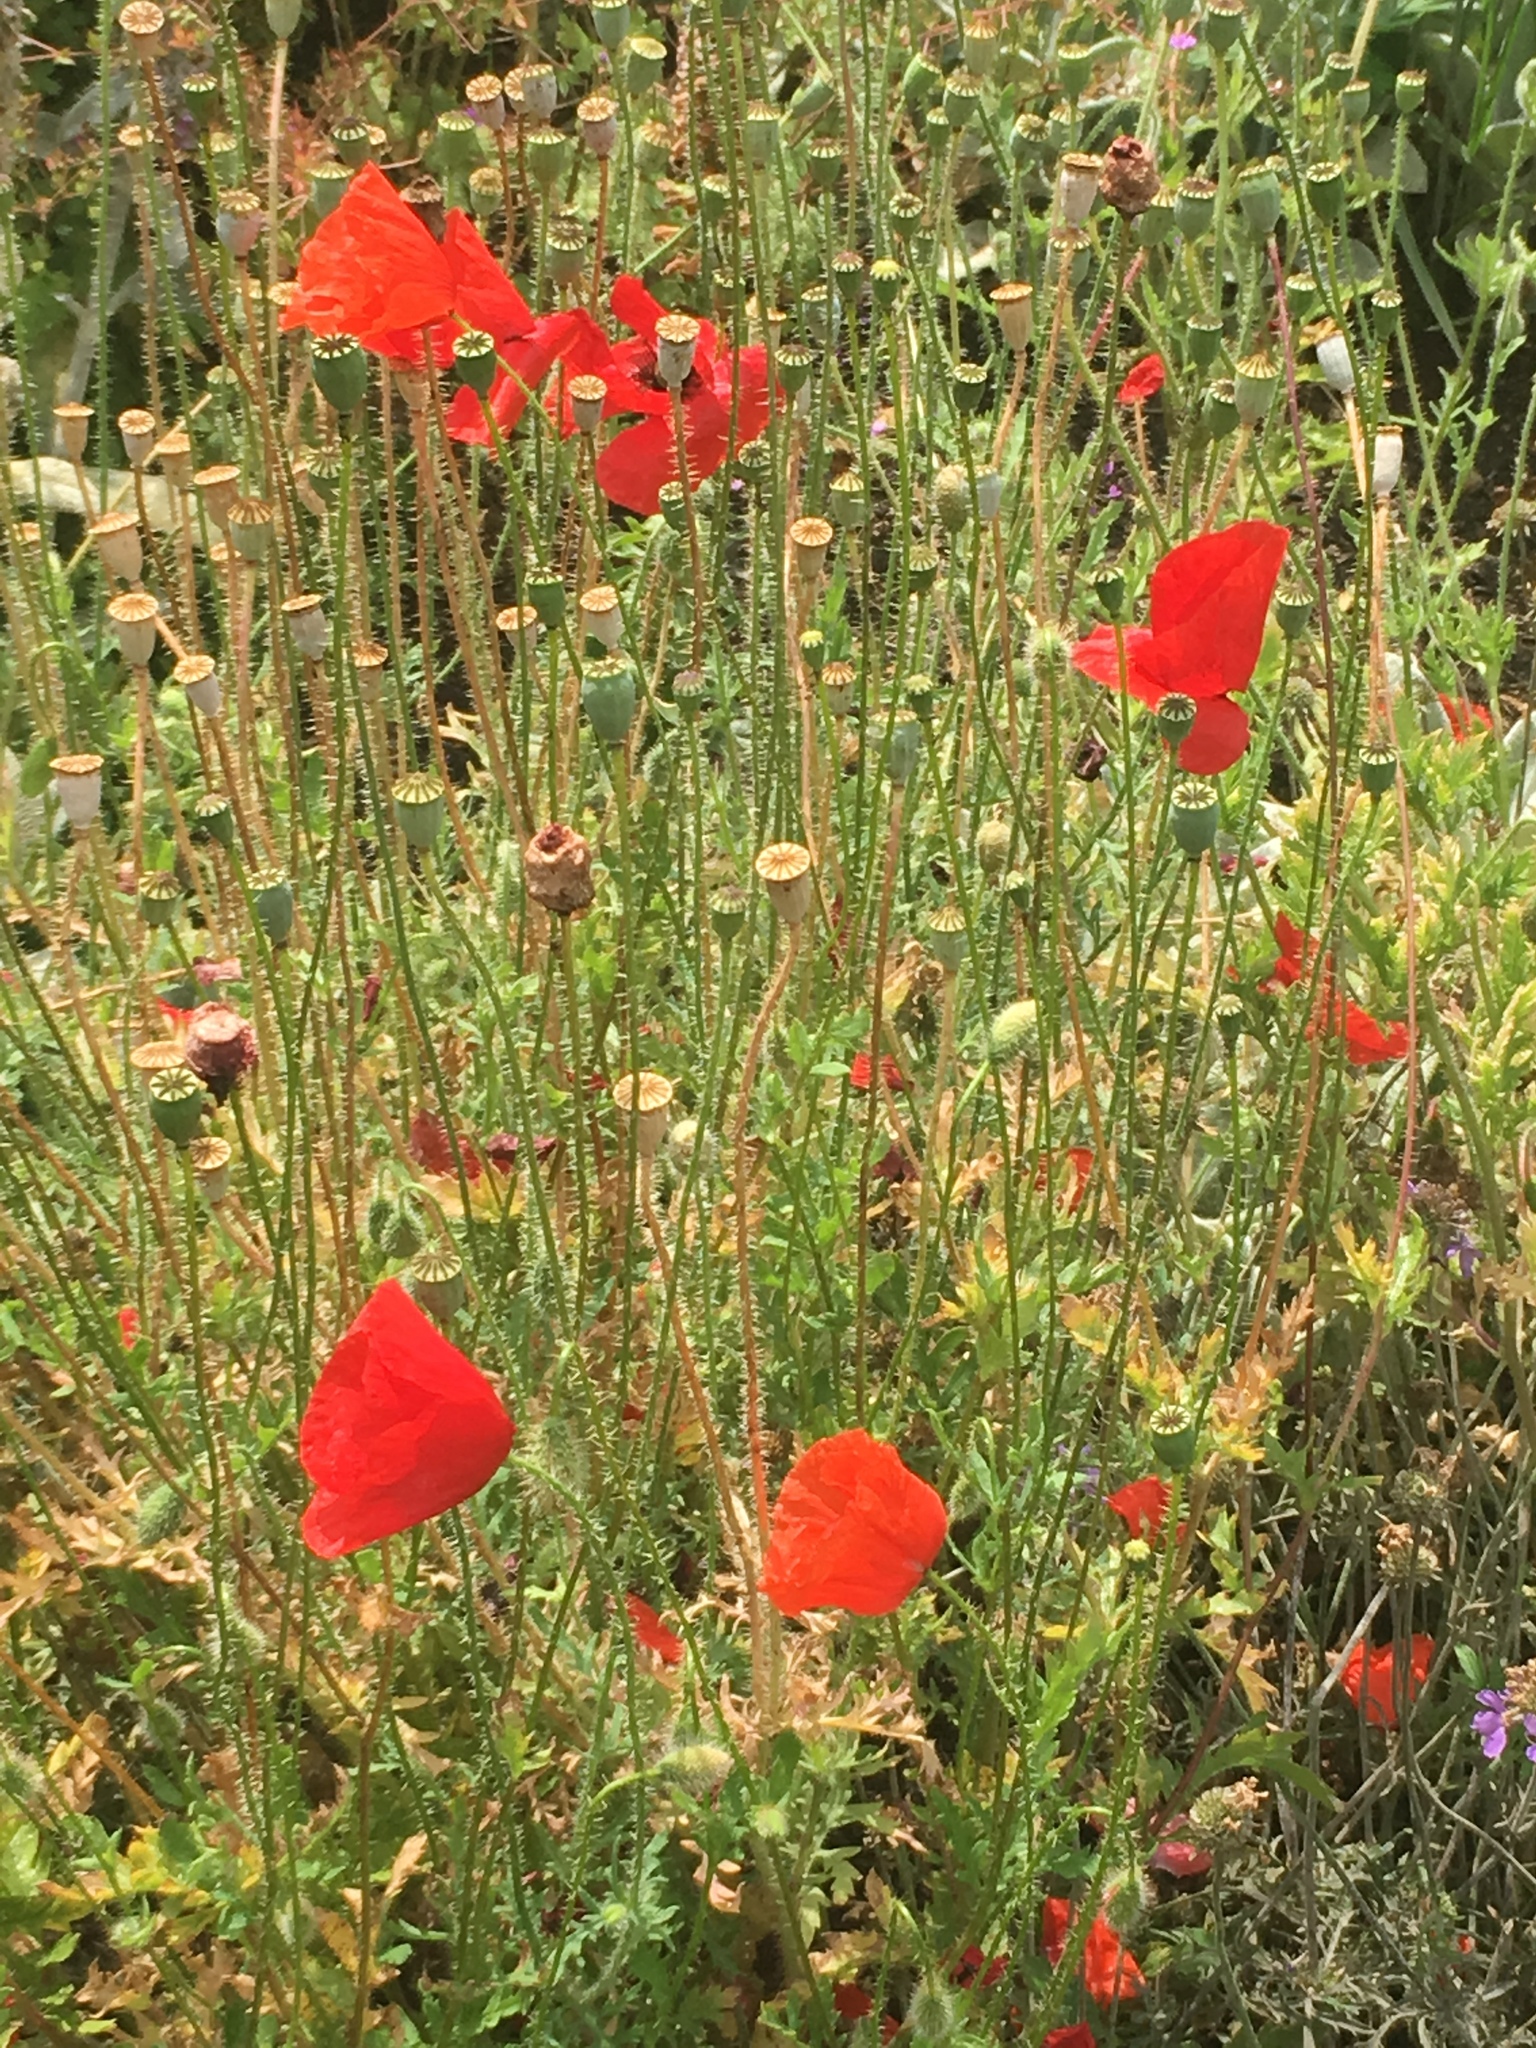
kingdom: Plantae
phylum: Tracheophyta
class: Magnoliopsida
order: Ranunculales
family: Papaveraceae
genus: Papaver
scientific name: Papaver rhoeas
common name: Corn poppy
